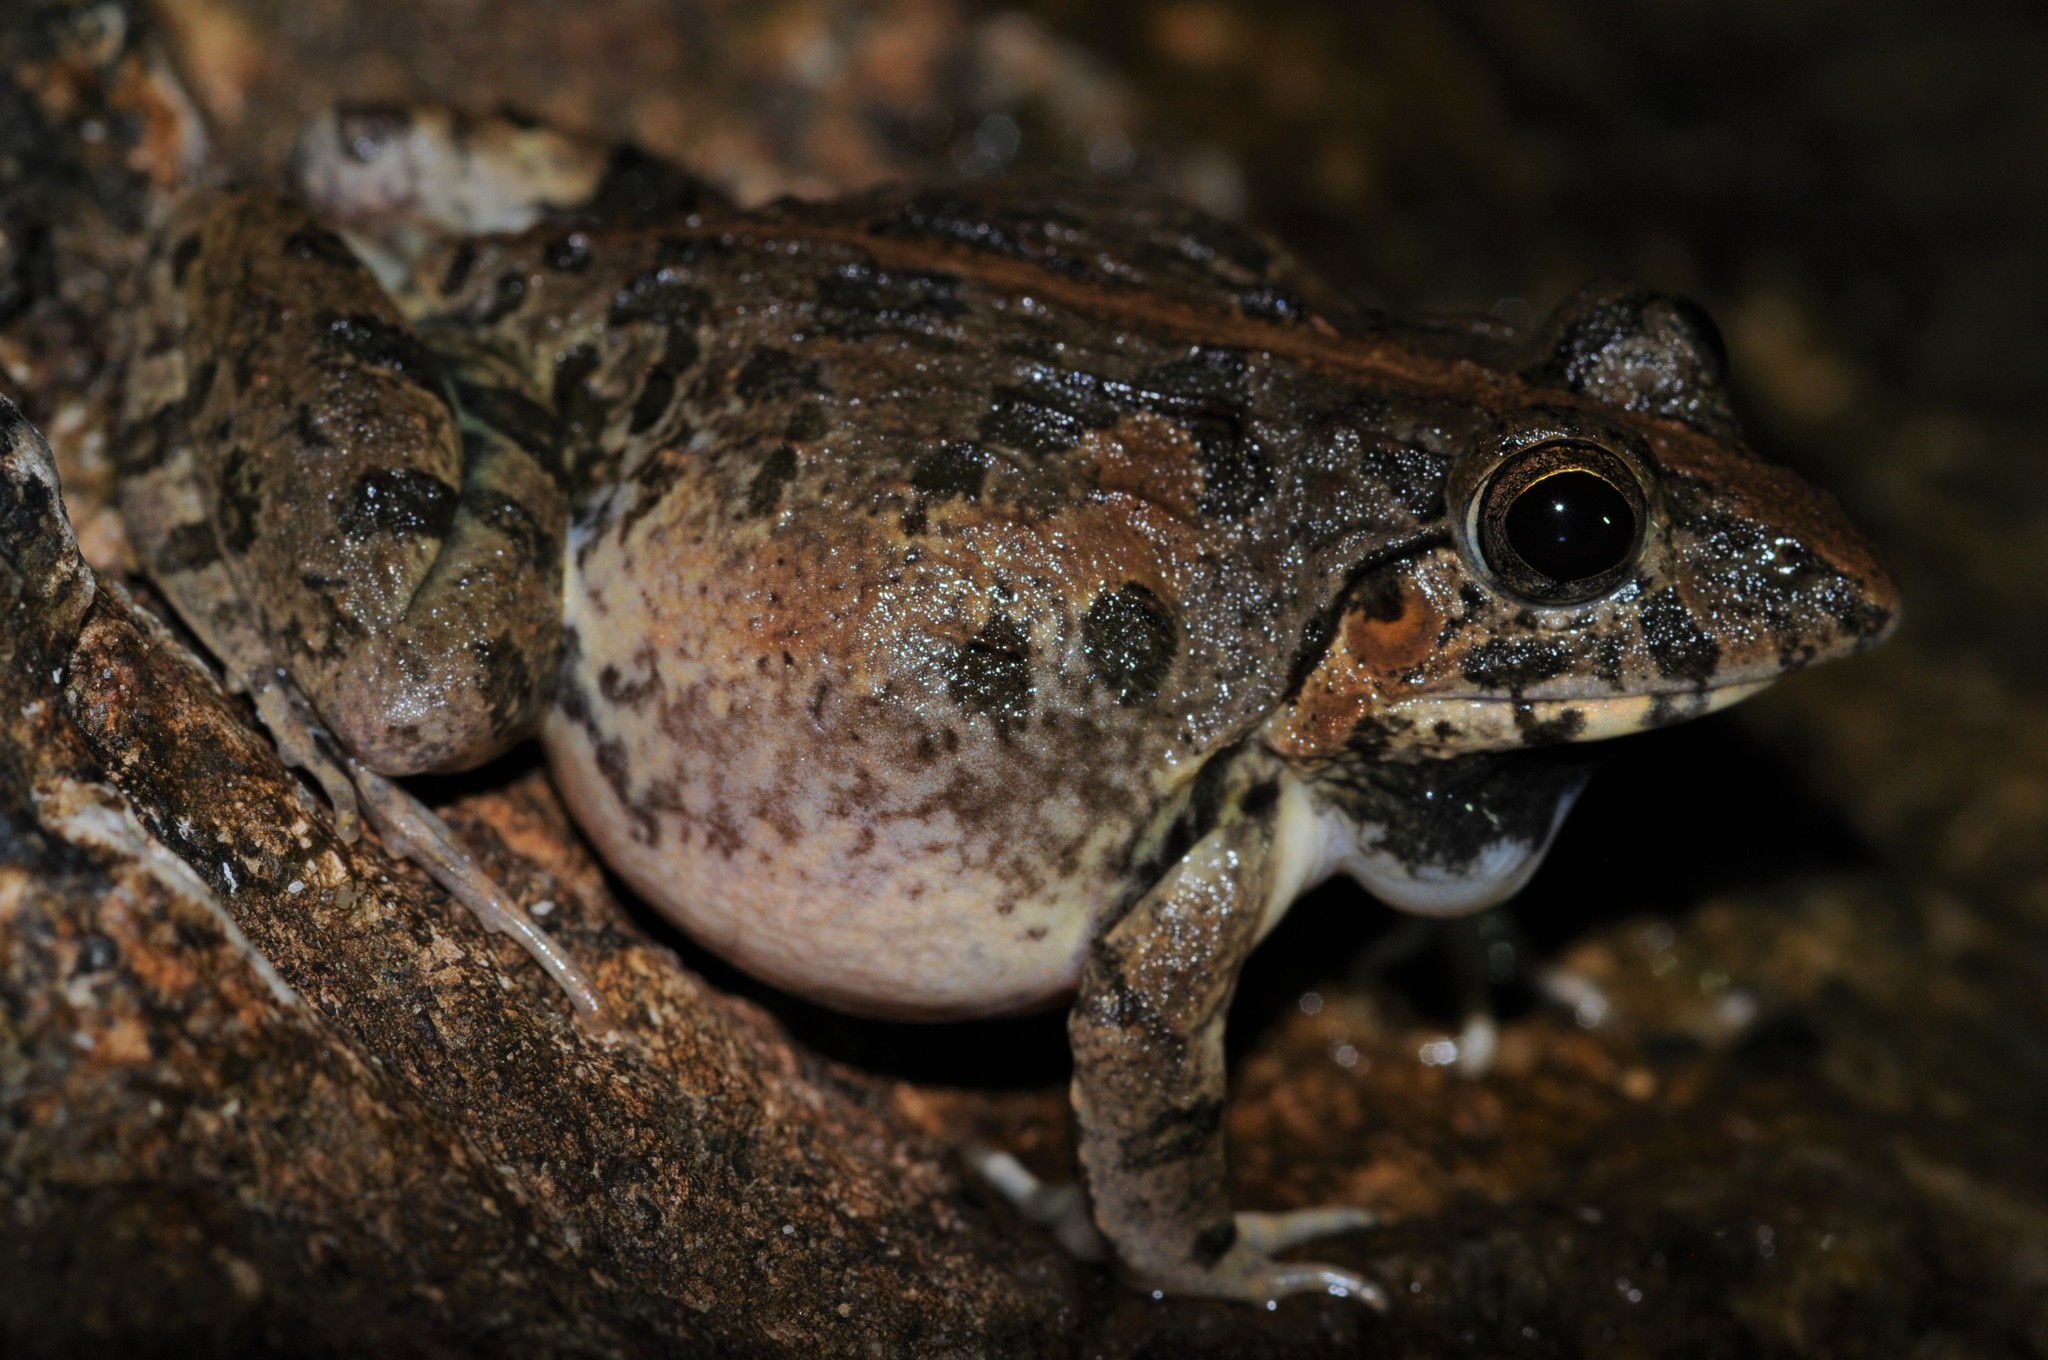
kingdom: Animalia
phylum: Chordata
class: Amphibia
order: Anura
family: Dicroglossidae
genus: Fejervarya
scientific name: Fejervarya limnocharis
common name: Asian grass frog/common pond frog/field frog/grass frog/indian rice frog
